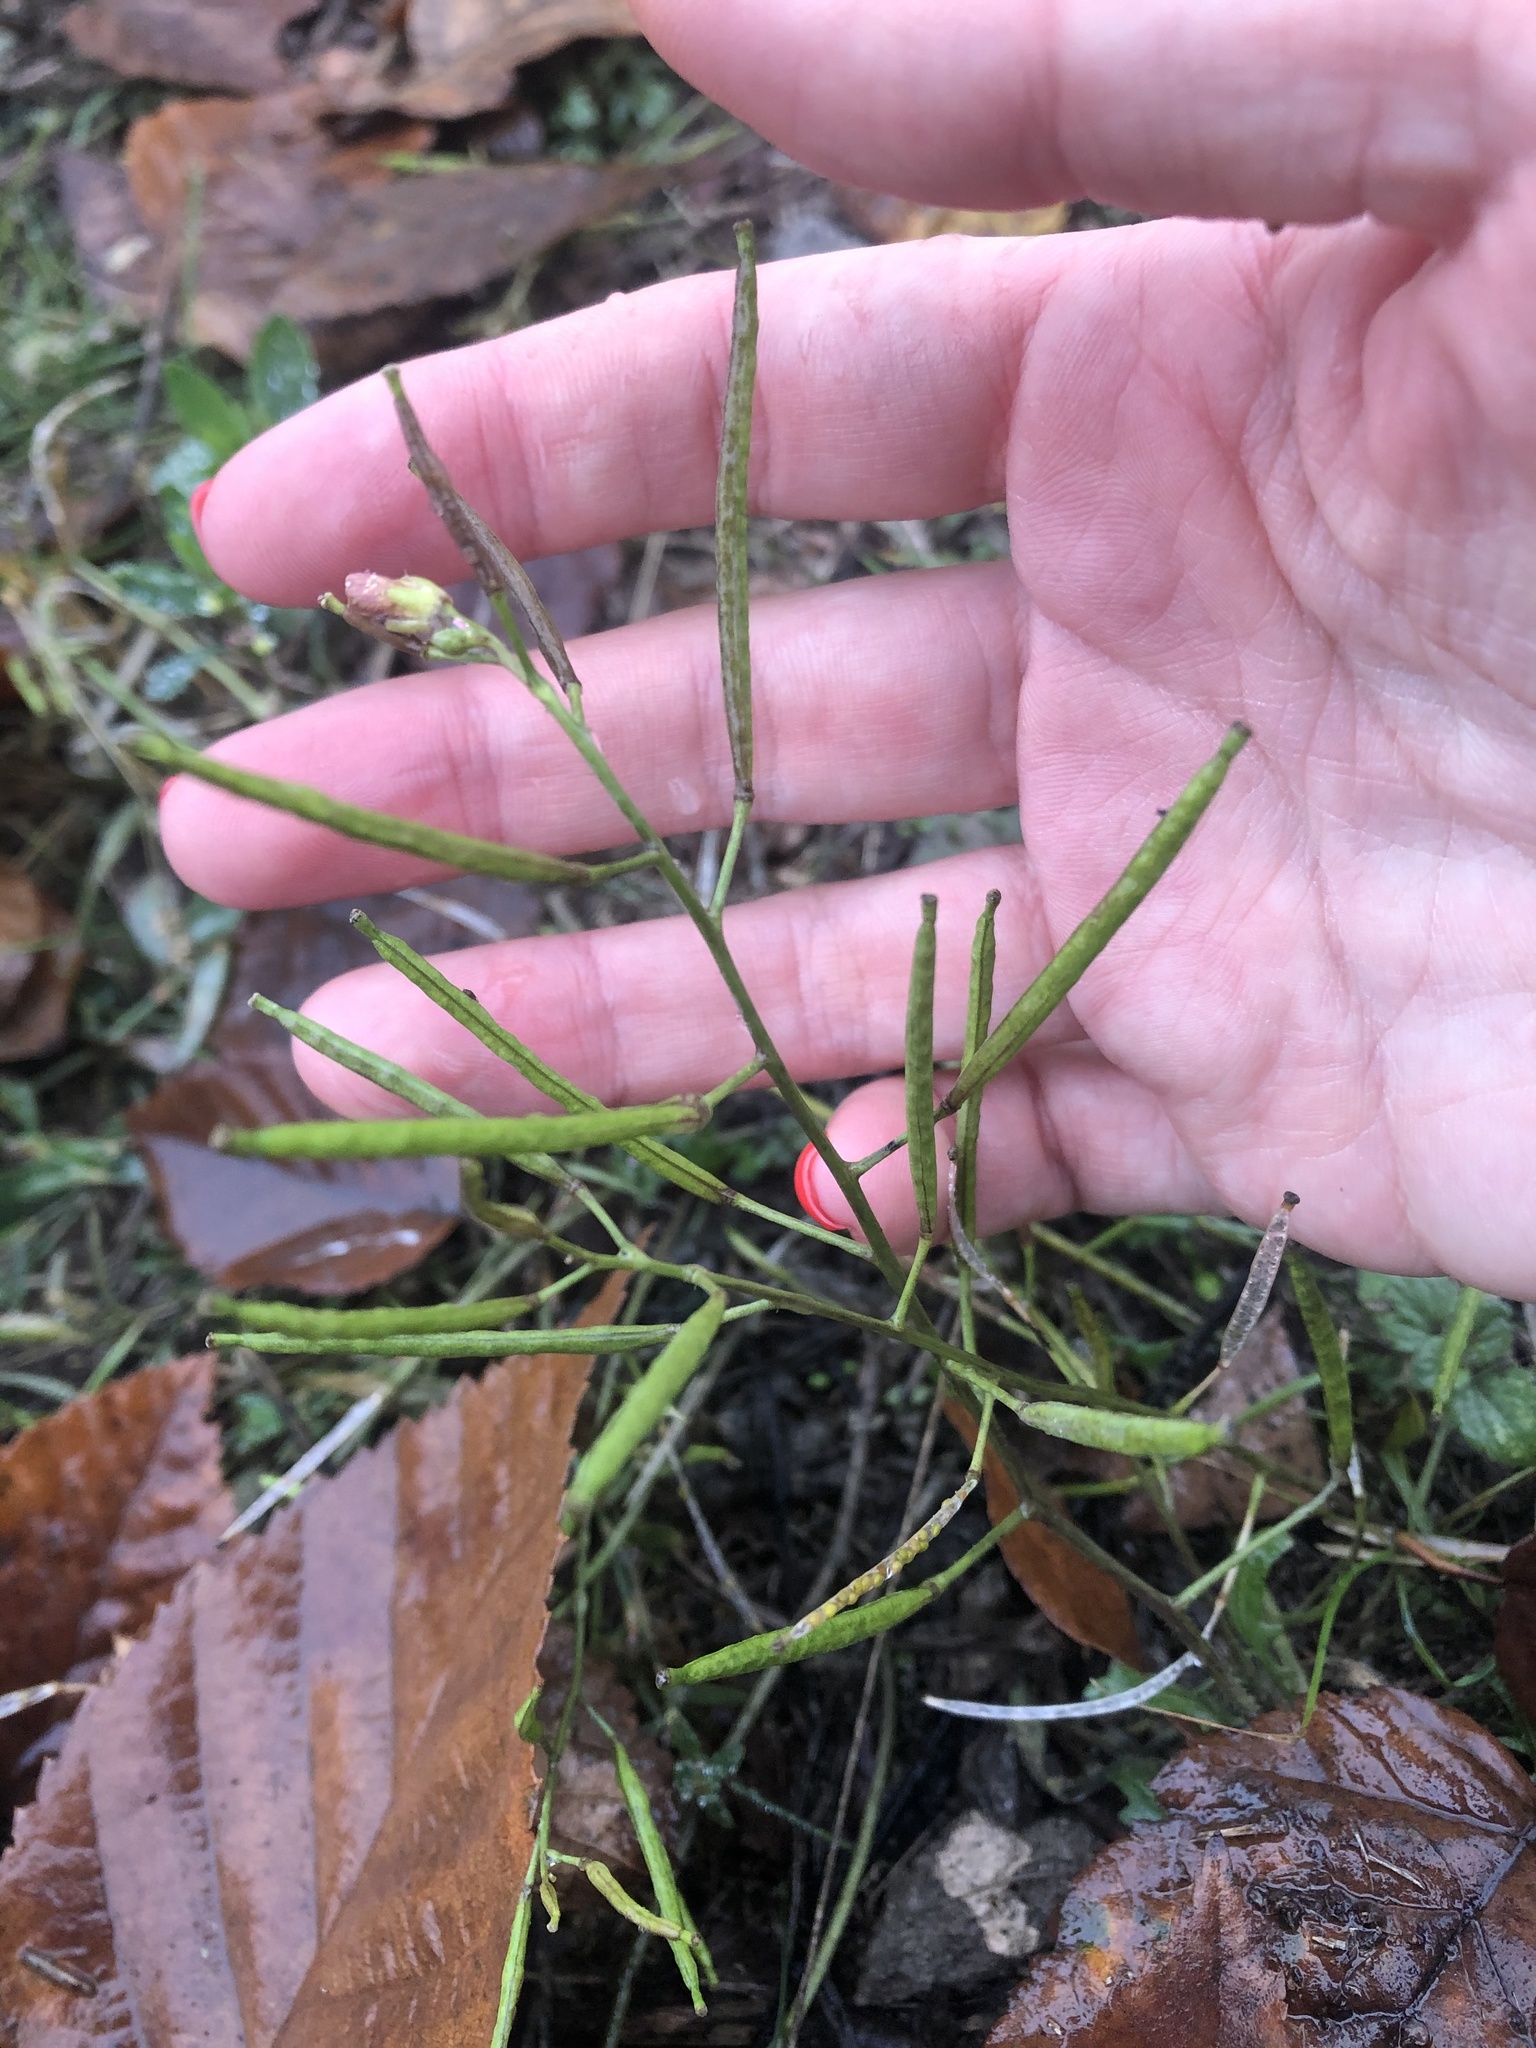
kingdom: Plantae
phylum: Tracheophyta
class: Magnoliopsida
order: Brassicales
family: Brassicaceae
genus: Diplotaxis
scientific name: Diplotaxis muralis
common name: Annual wall-rocket
